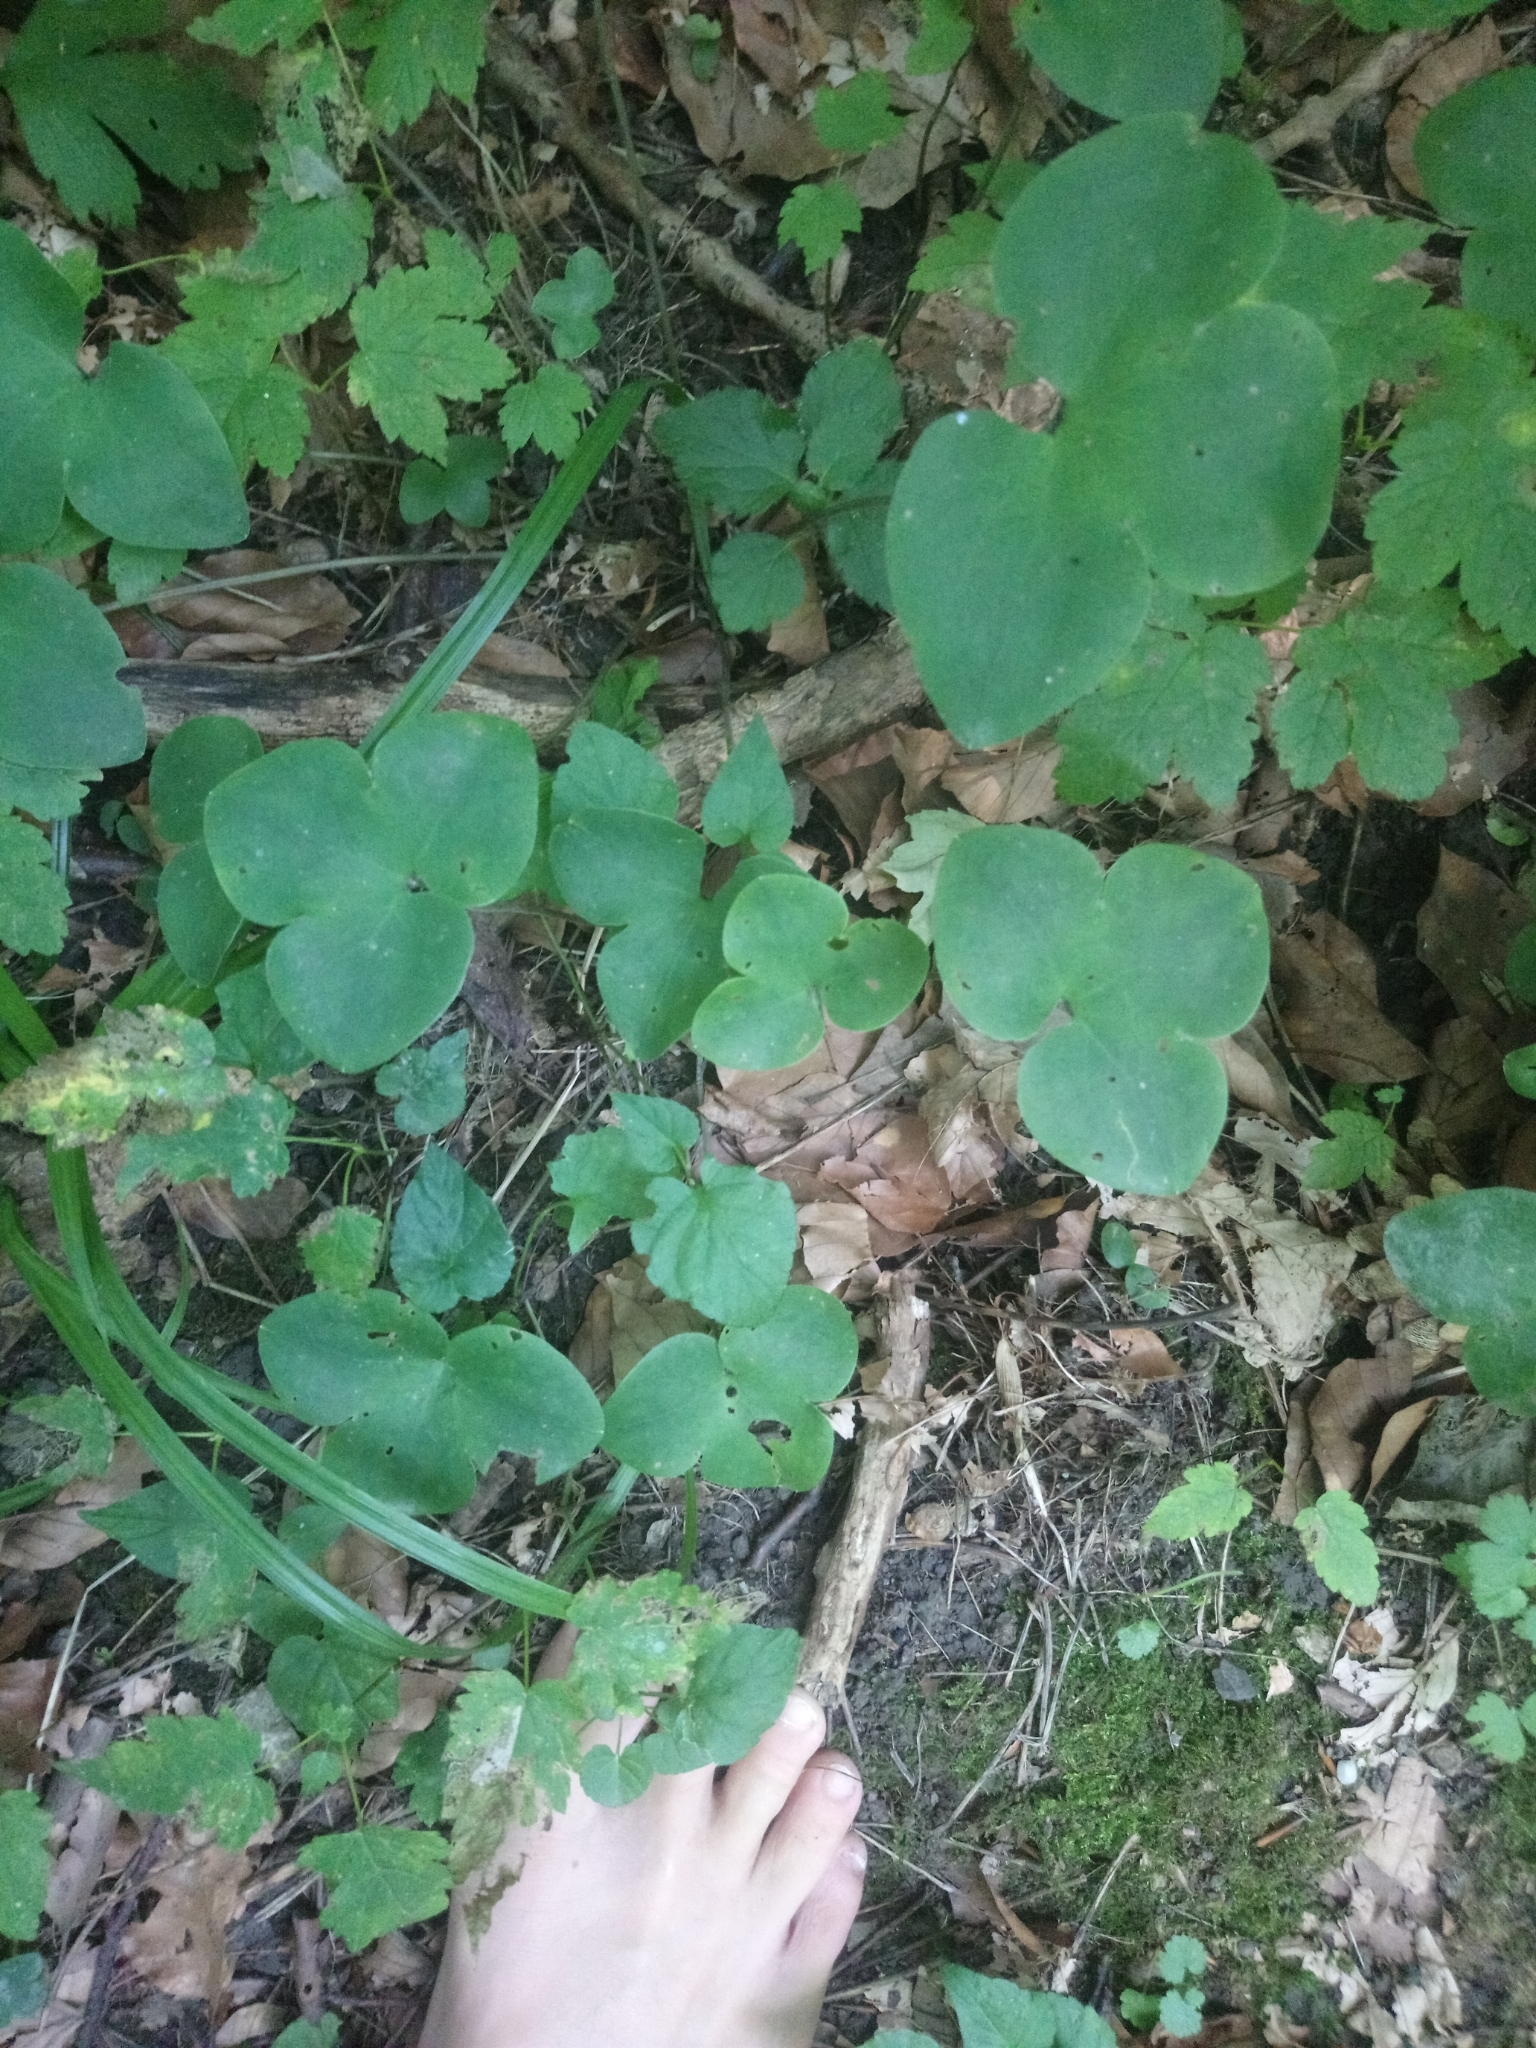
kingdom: Plantae
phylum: Tracheophyta
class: Magnoliopsida
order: Ranunculales
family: Ranunculaceae
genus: Hepatica
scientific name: Hepatica nobilis
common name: Liverleaf
